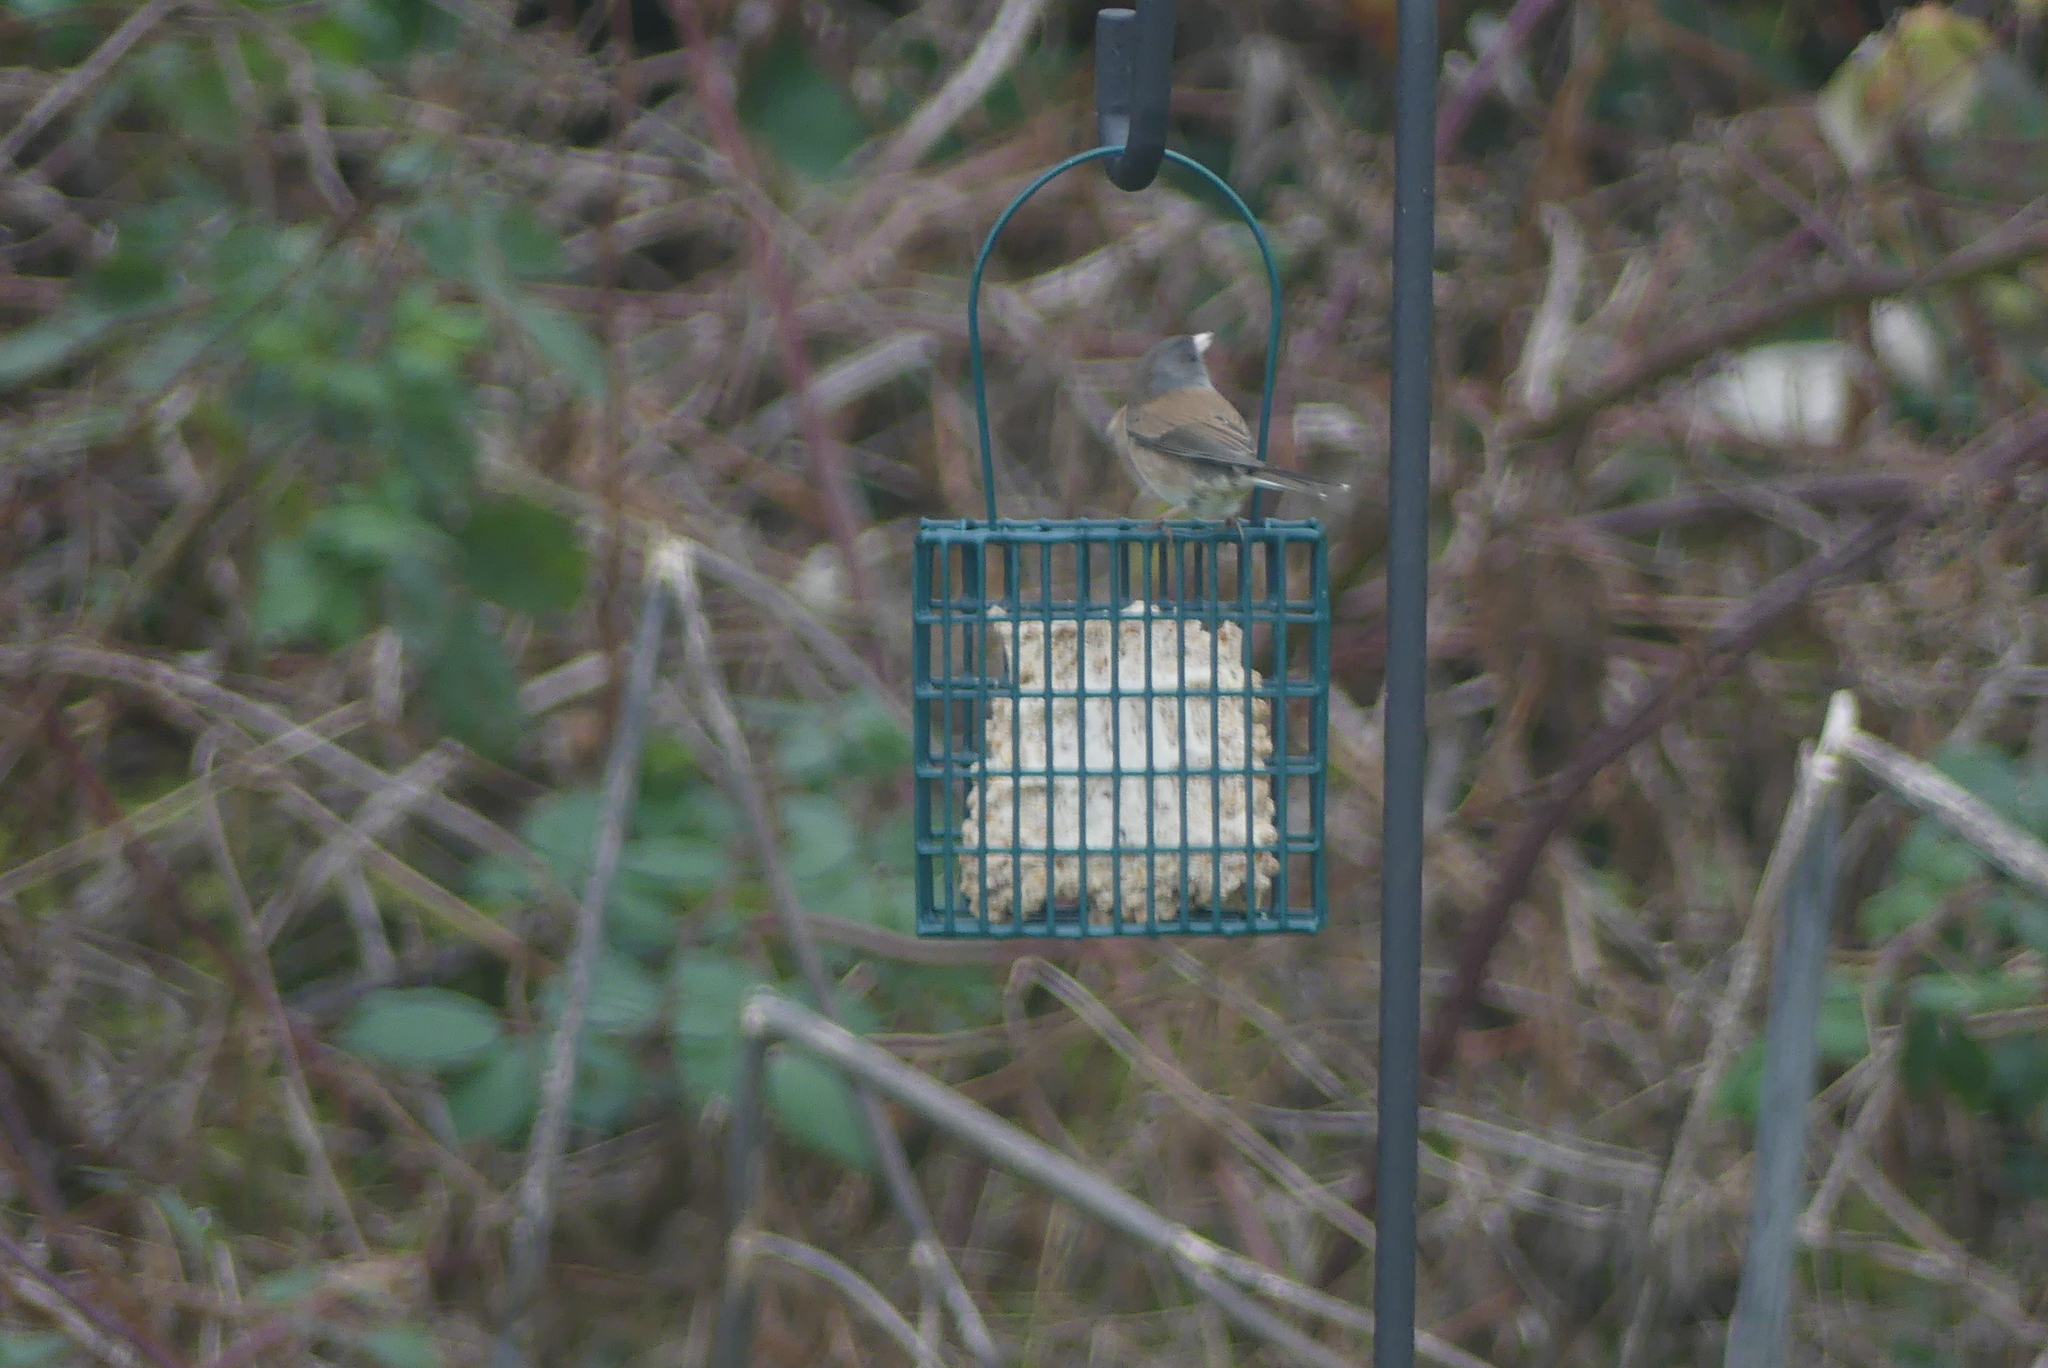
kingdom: Animalia
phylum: Chordata
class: Aves
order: Passeriformes
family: Passerellidae
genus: Junco
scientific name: Junco hyemalis
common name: Dark-eyed junco
